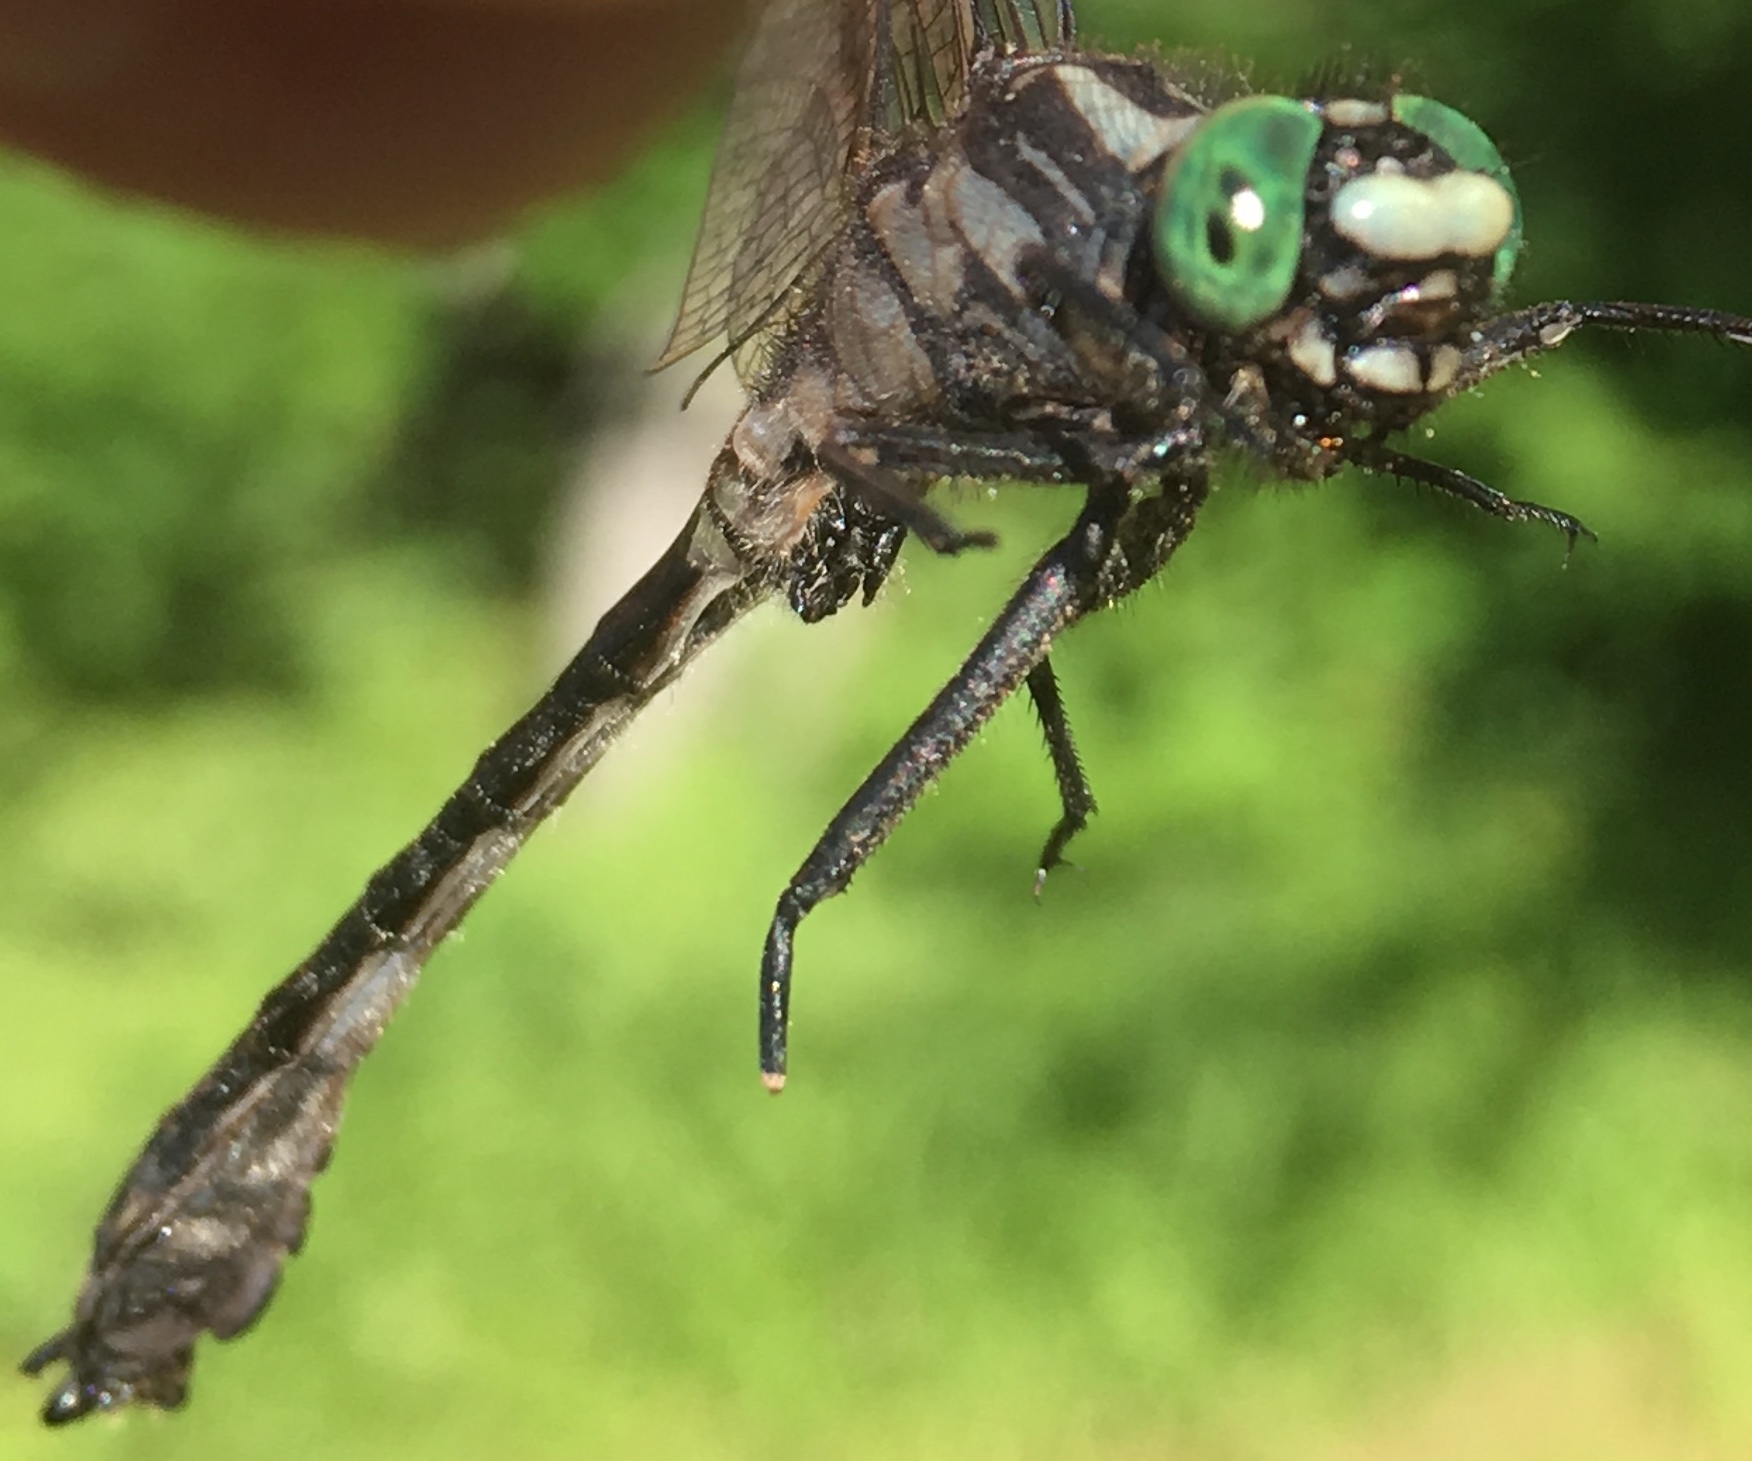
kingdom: Animalia
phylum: Arthropoda
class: Insecta
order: Odonata
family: Gomphidae
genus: Hylogomphus
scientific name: Hylogomphus adelphus
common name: Mustached clubtail
